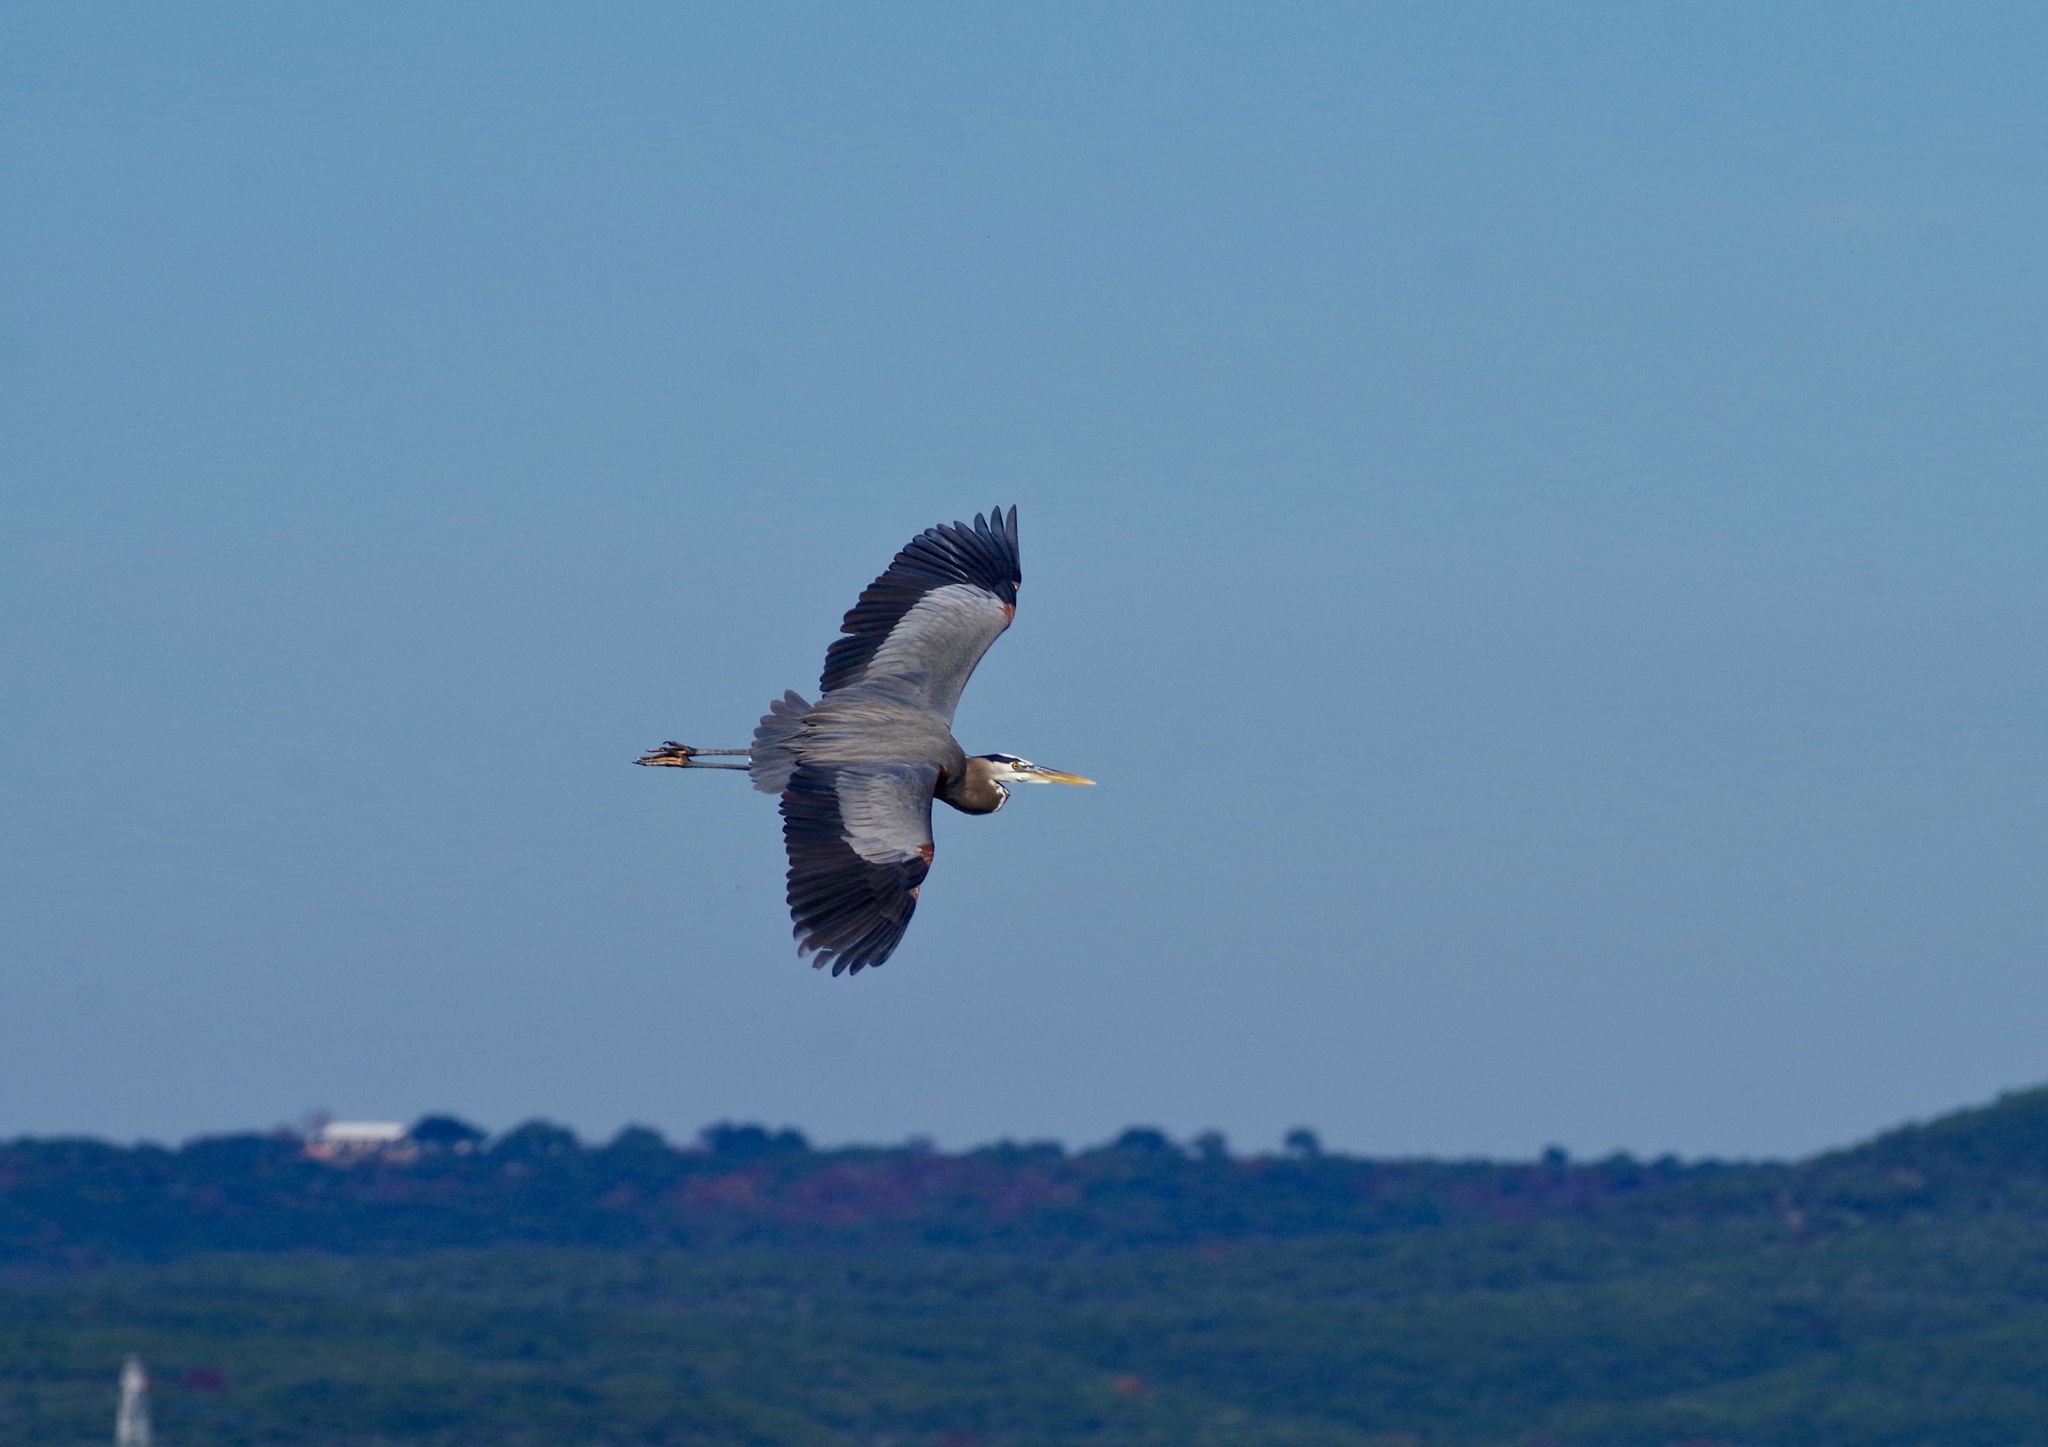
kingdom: Animalia
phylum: Chordata
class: Aves
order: Pelecaniformes
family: Ardeidae
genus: Ardea
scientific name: Ardea herodias
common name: Great blue heron
